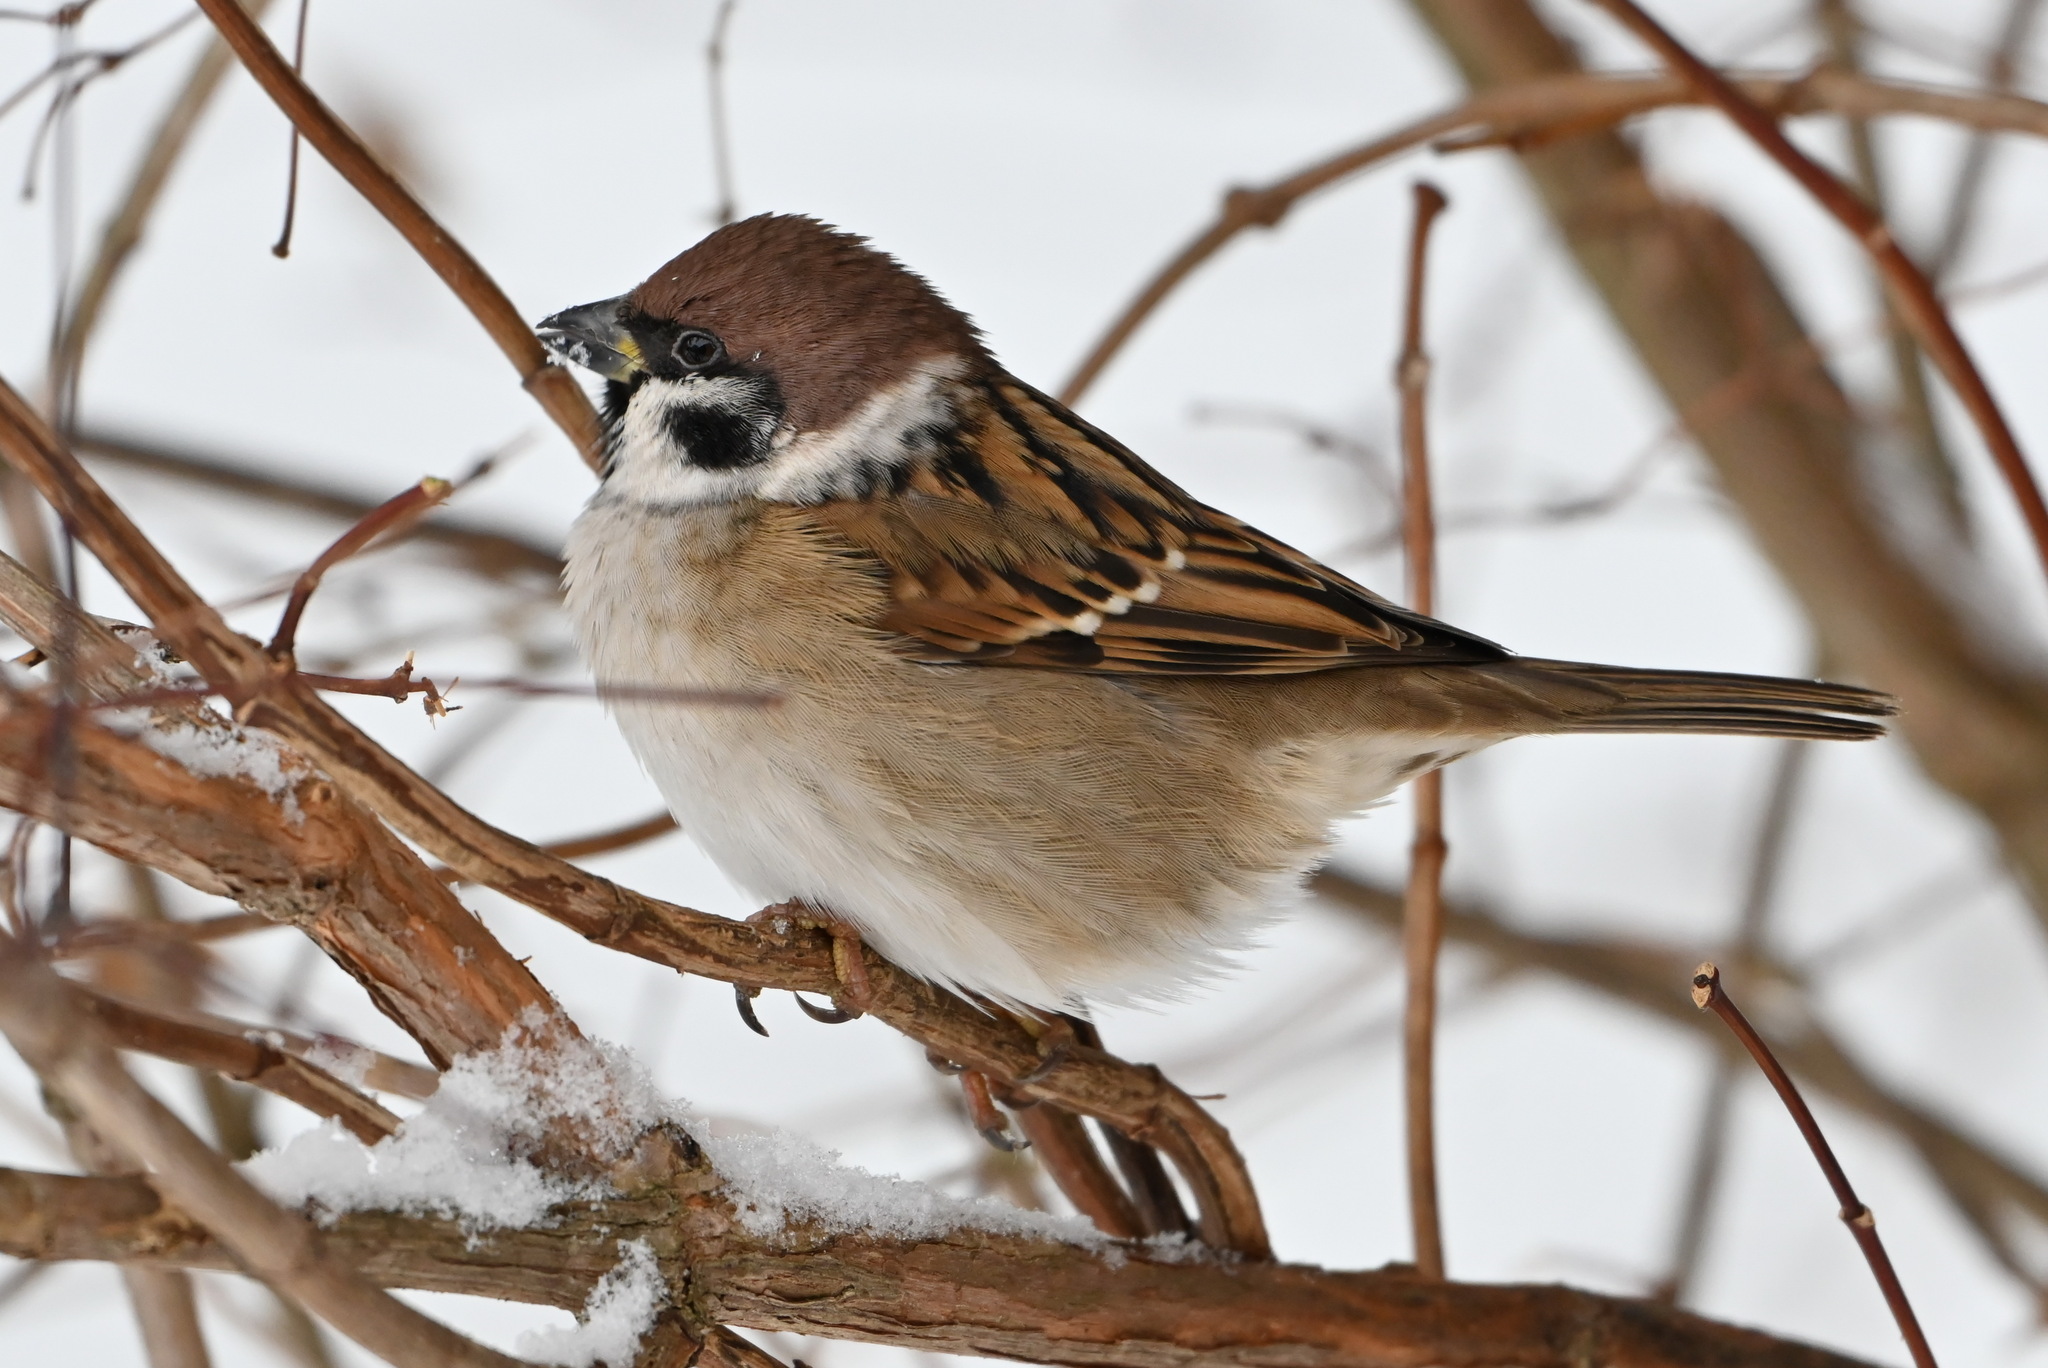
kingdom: Animalia
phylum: Chordata
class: Aves
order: Passeriformes
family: Passeridae
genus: Passer
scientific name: Passer montanus
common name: Eurasian tree sparrow
